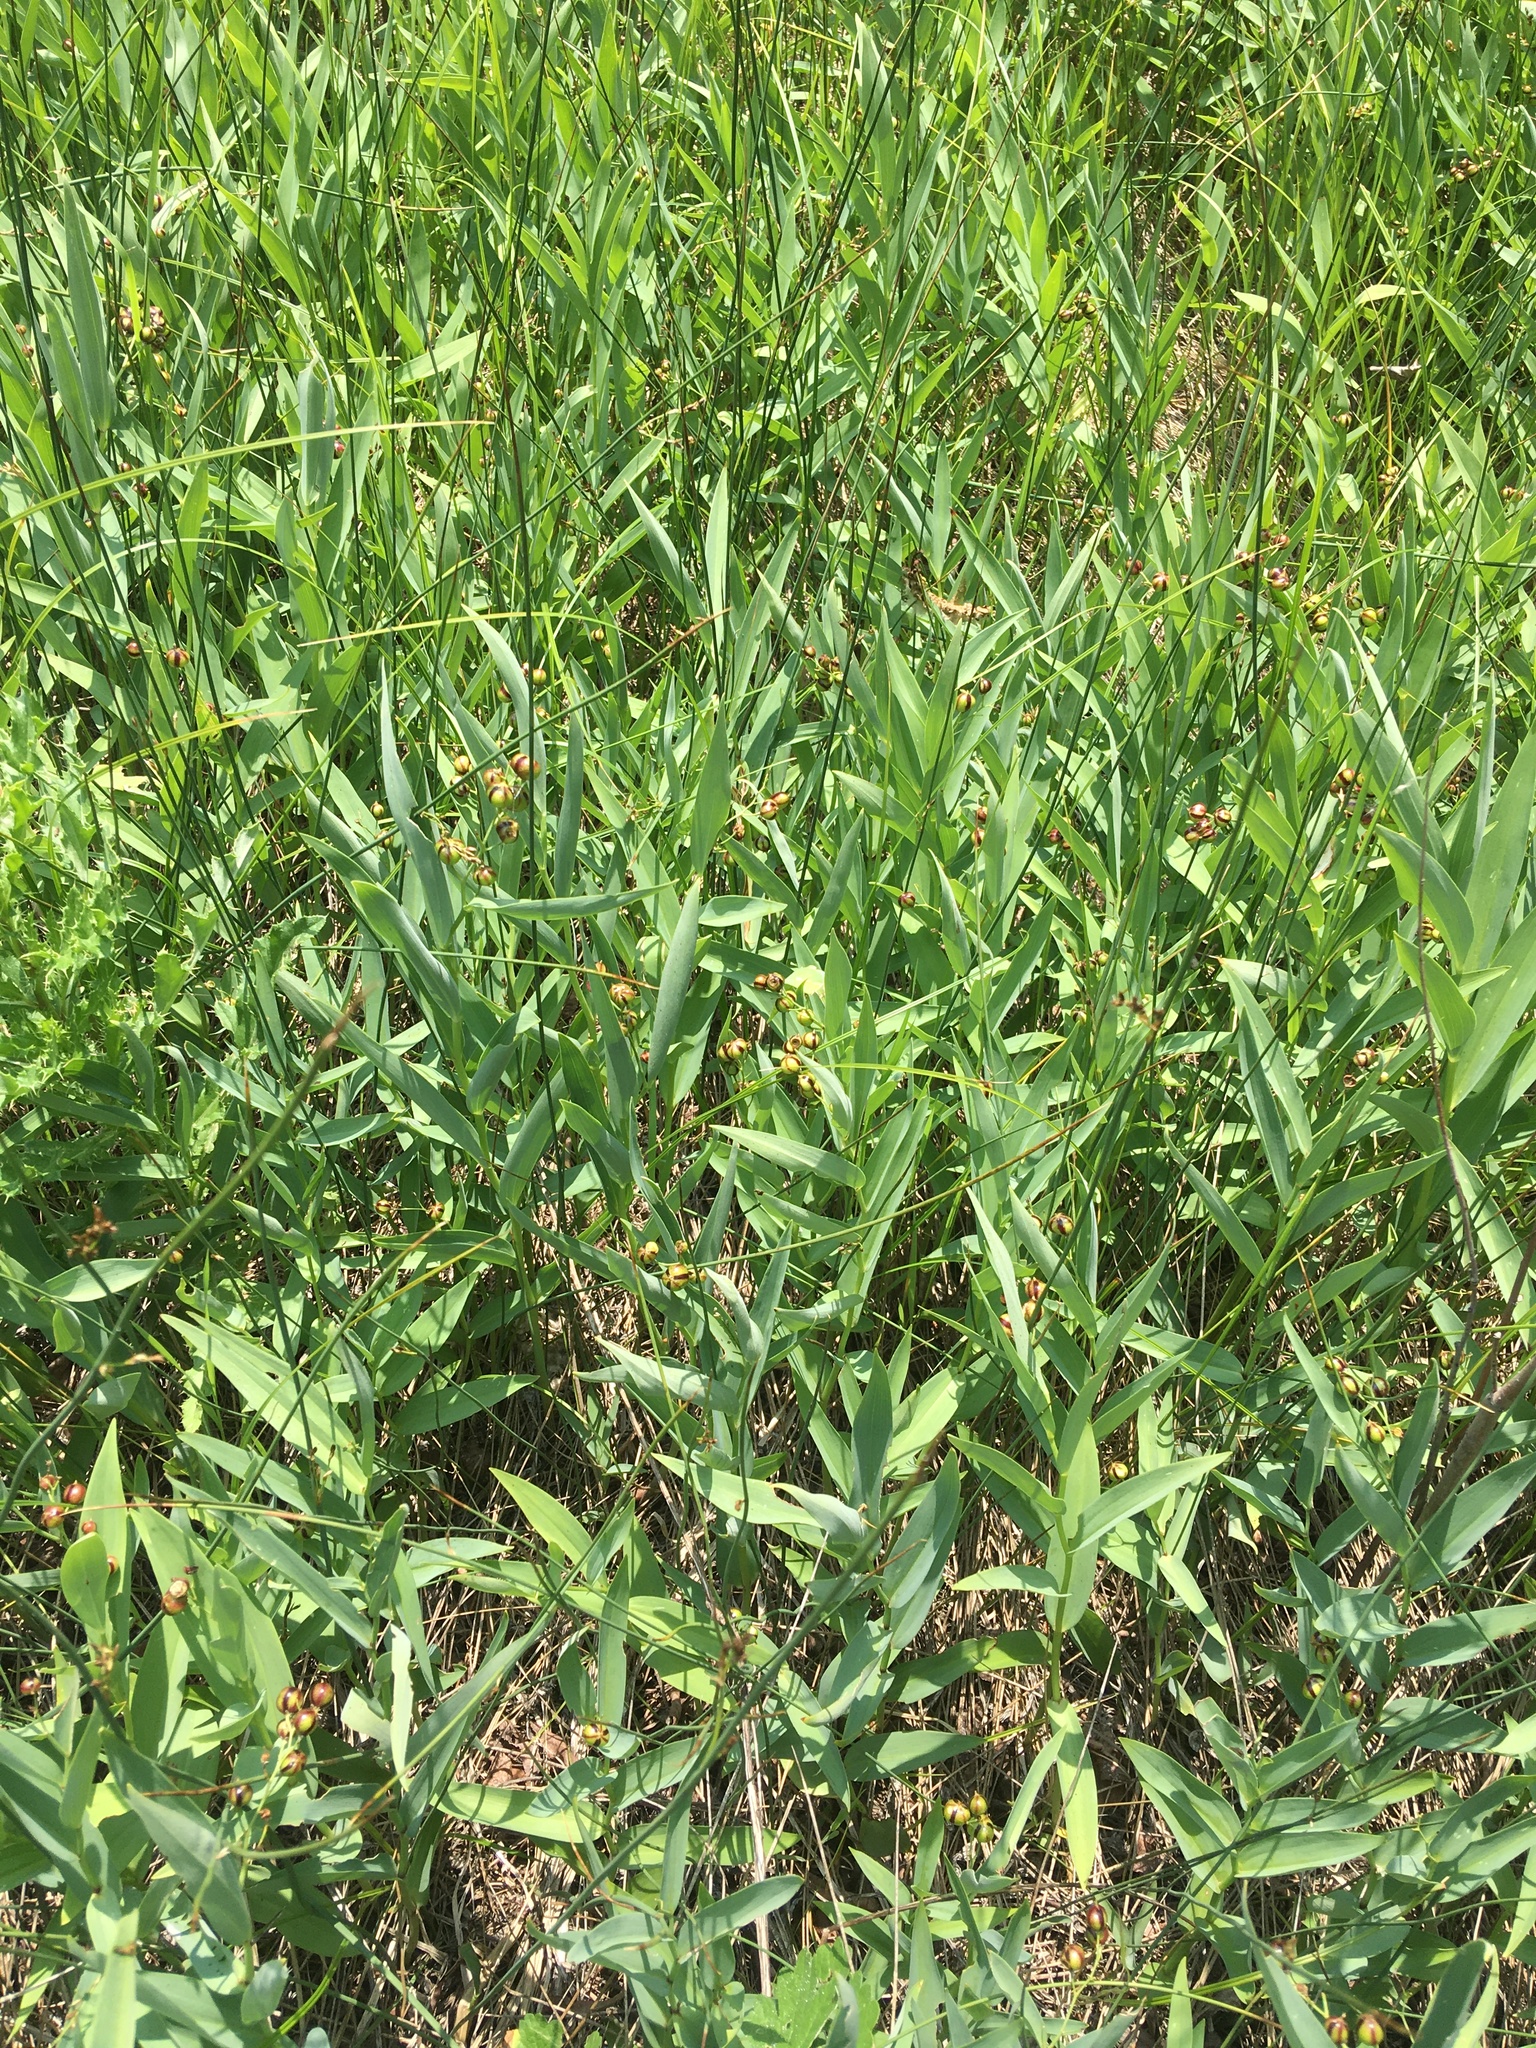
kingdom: Plantae
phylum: Tracheophyta
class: Liliopsida
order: Asparagales
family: Asparagaceae
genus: Maianthemum
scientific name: Maianthemum stellatum
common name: Little false solomon's seal
